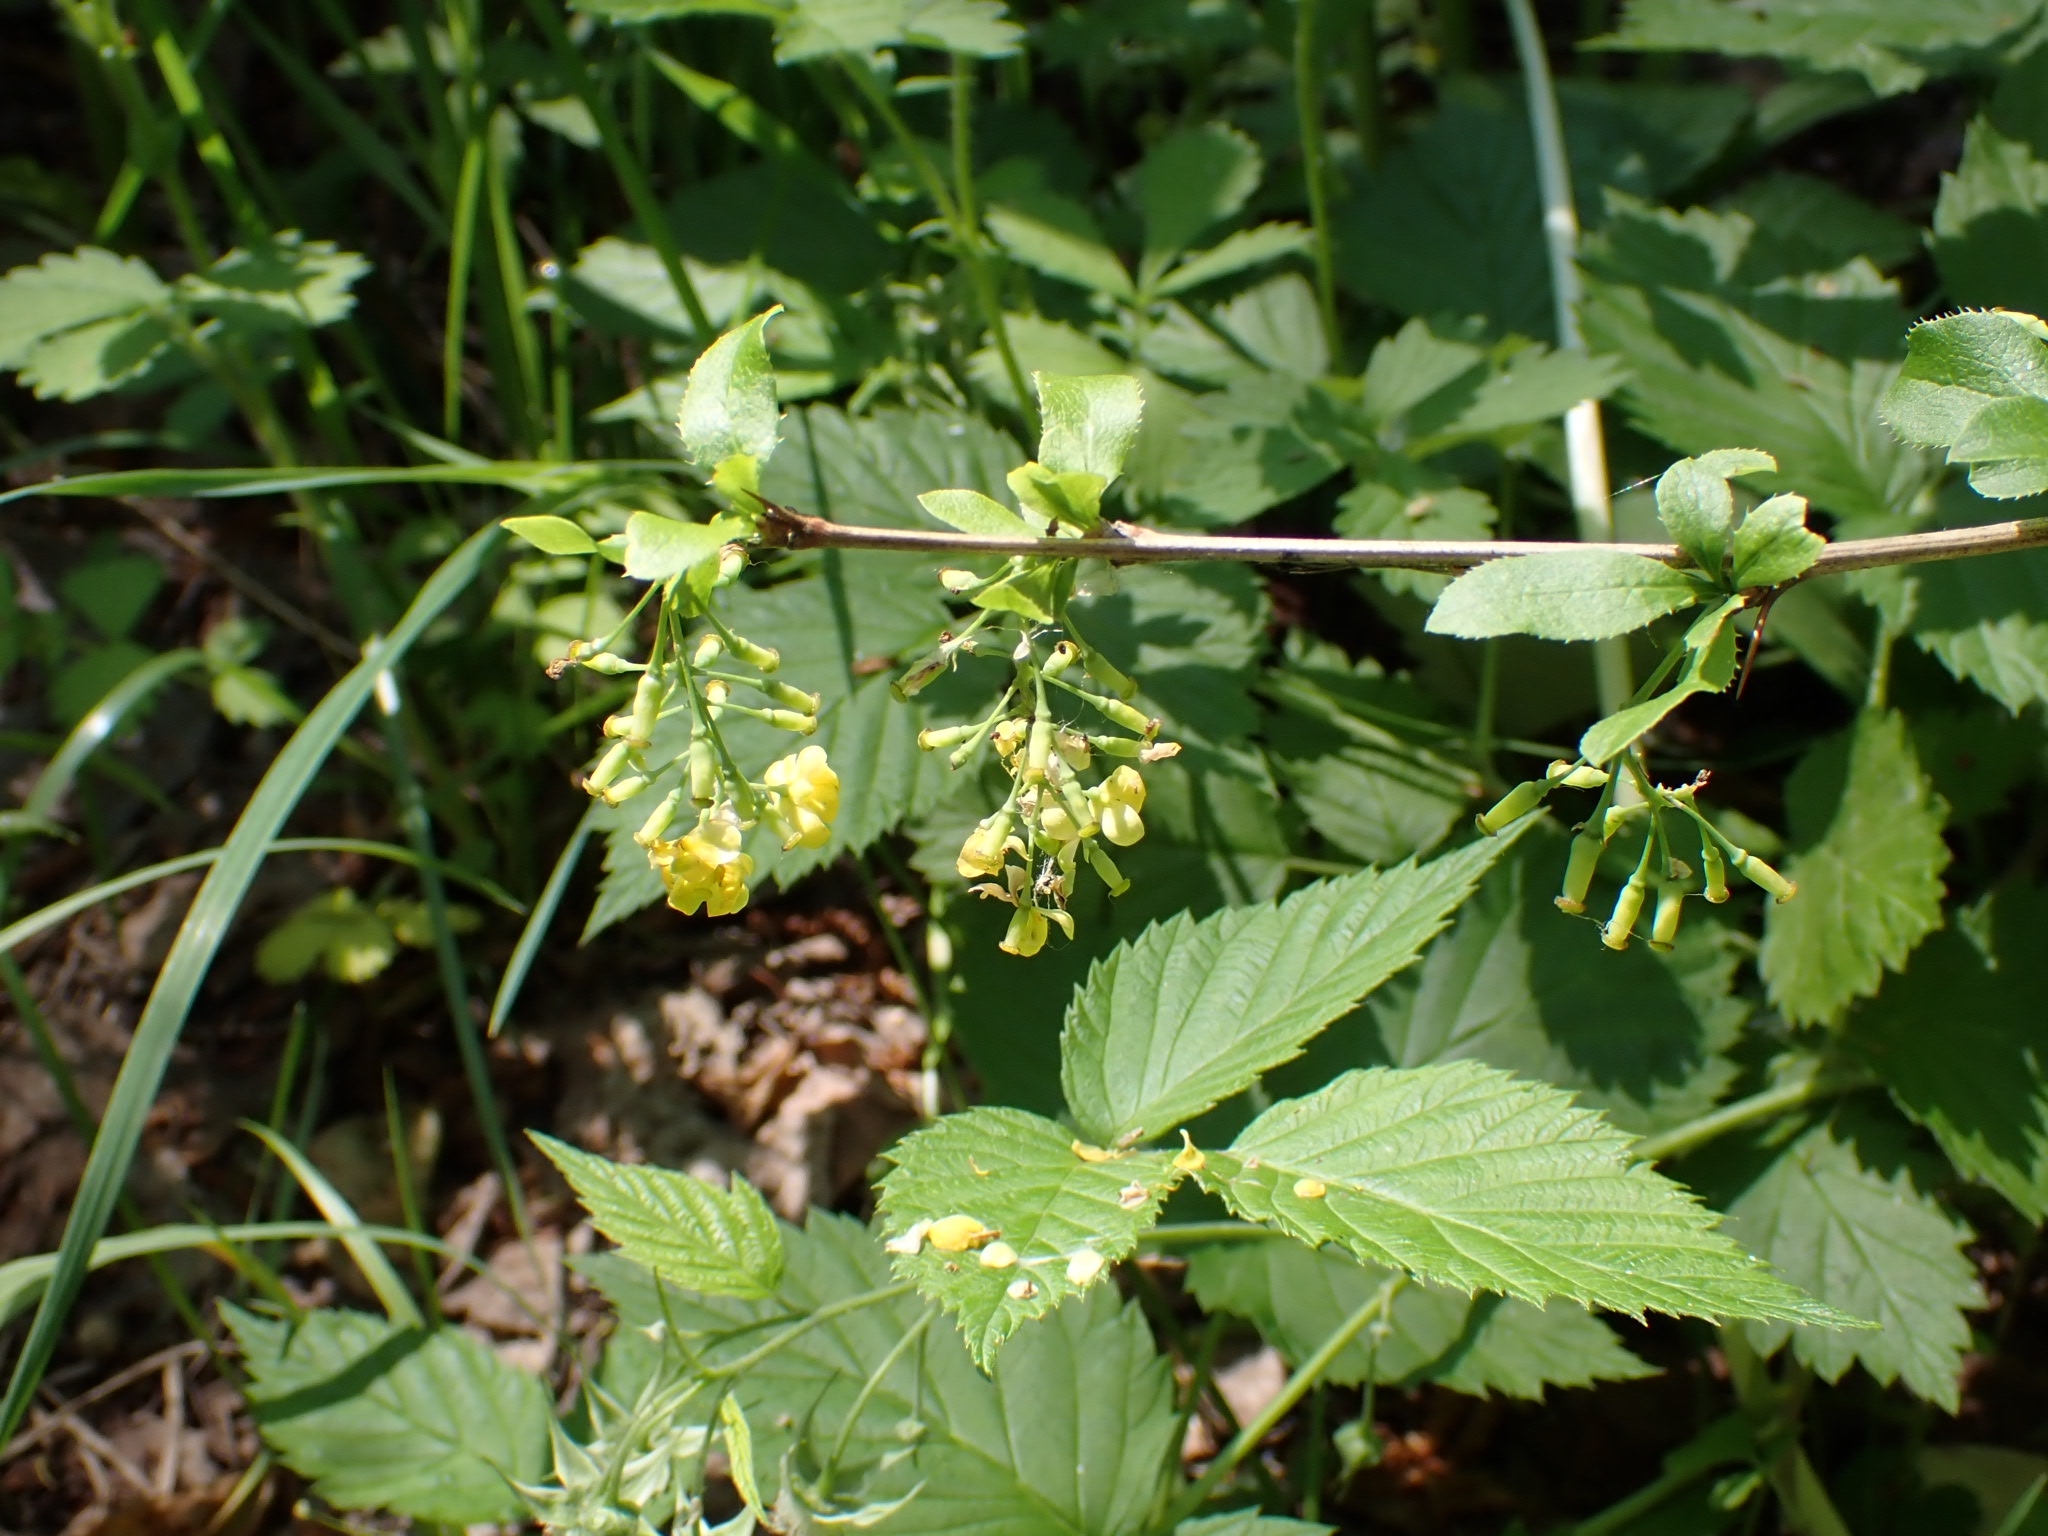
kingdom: Plantae
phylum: Tracheophyta
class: Magnoliopsida
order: Ranunculales
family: Berberidaceae
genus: Berberis
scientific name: Berberis vulgaris
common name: Barberry
